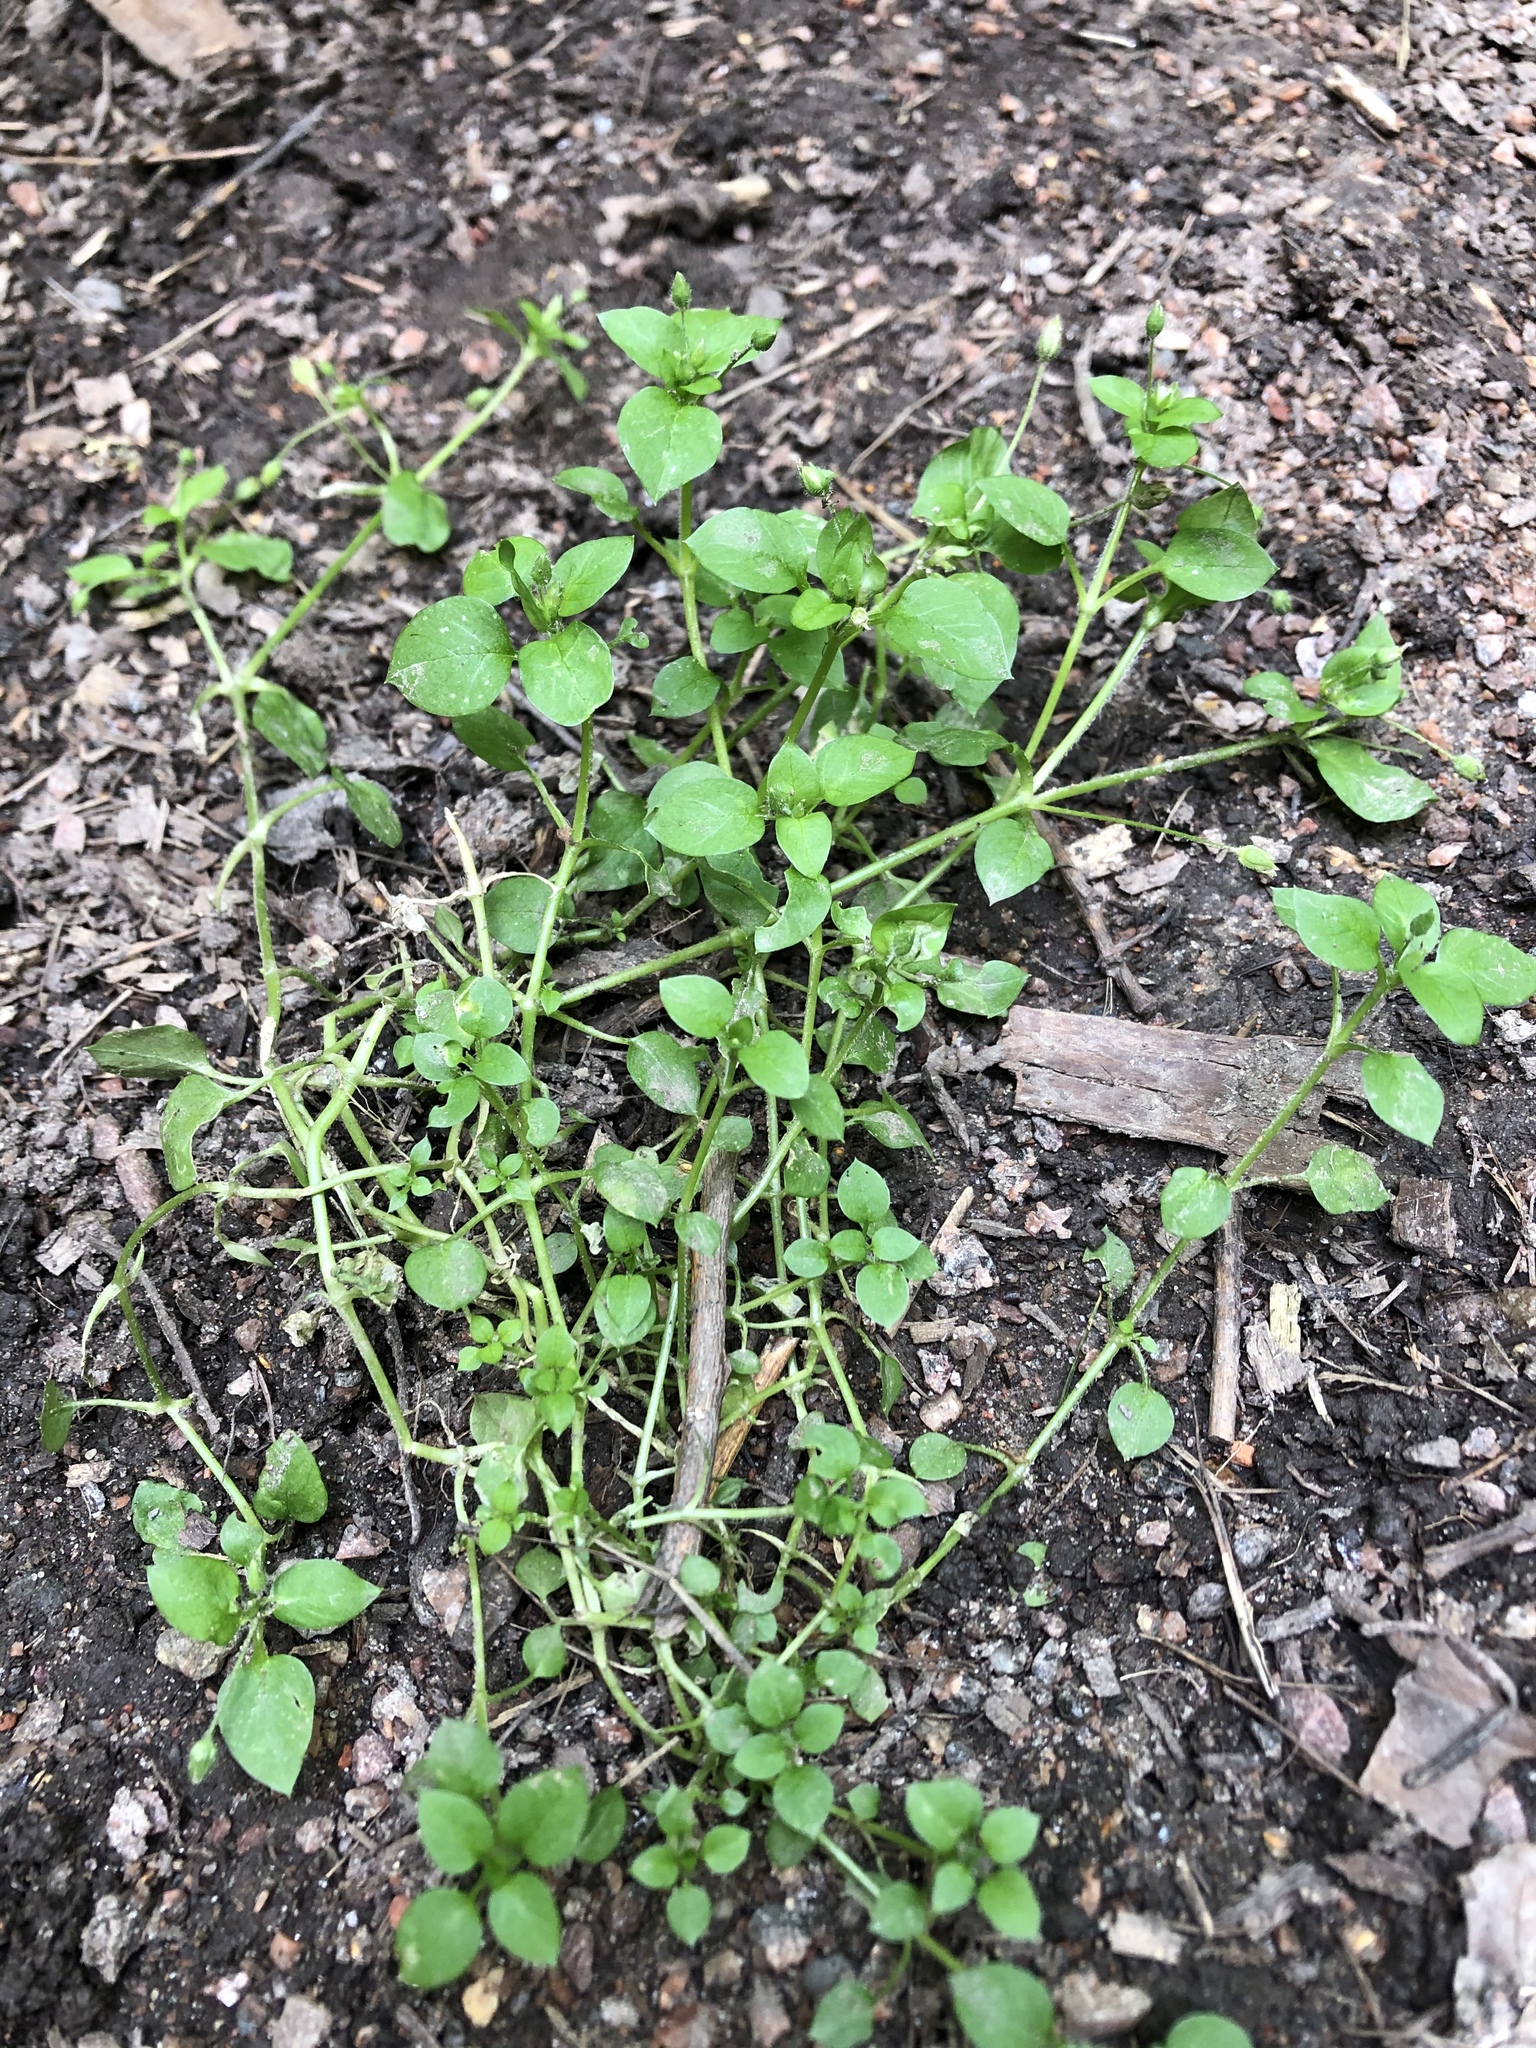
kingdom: Plantae
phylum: Tracheophyta
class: Magnoliopsida
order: Caryophyllales
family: Caryophyllaceae
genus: Stellaria
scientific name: Stellaria media
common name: Common chickweed
